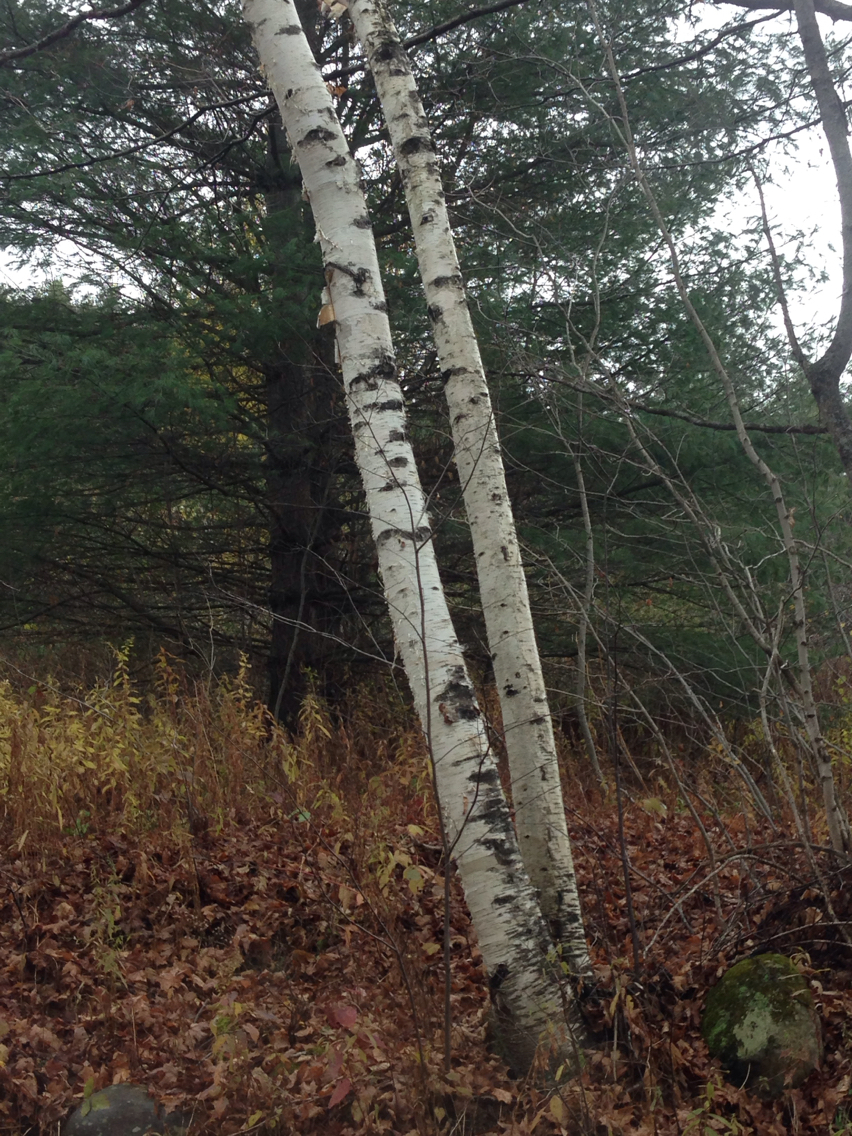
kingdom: Plantae
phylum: Tracheophyta
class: Magnoliopsida
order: Fagales
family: Betulaceae
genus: Betula
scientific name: Betula papyrifera
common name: Paper birch
